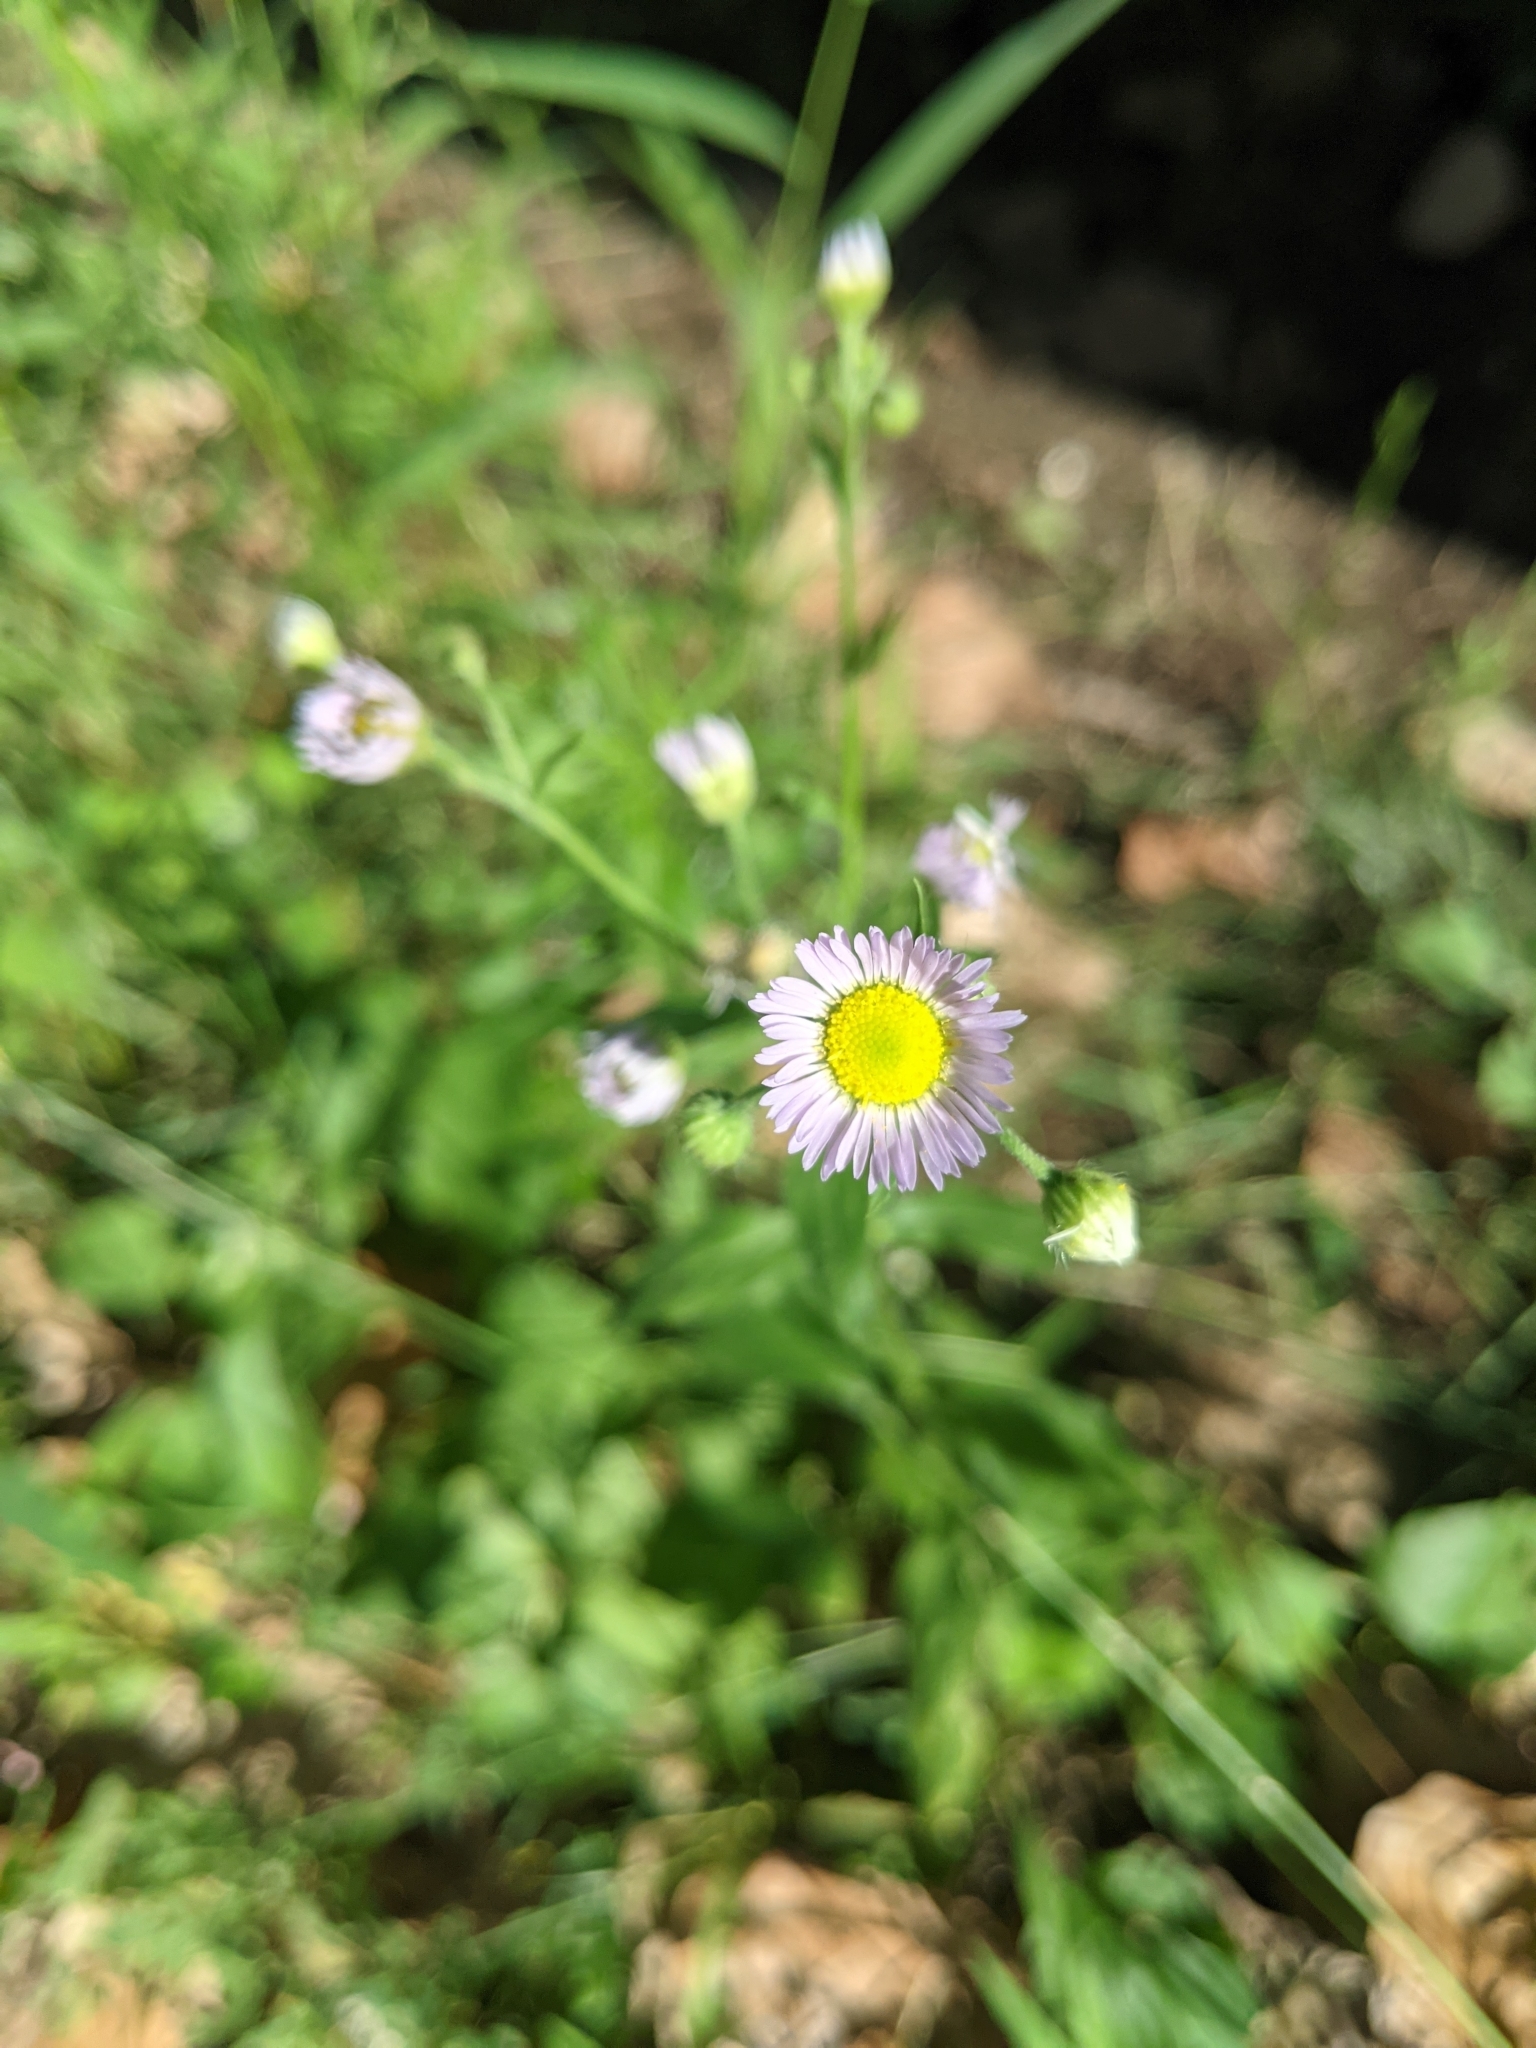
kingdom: Plantae
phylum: Tracheophyta
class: Magnoliopsida
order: Asterales
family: Asteraceae
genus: Erigeron
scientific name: Erigeron annuus
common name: Tall fleabane
